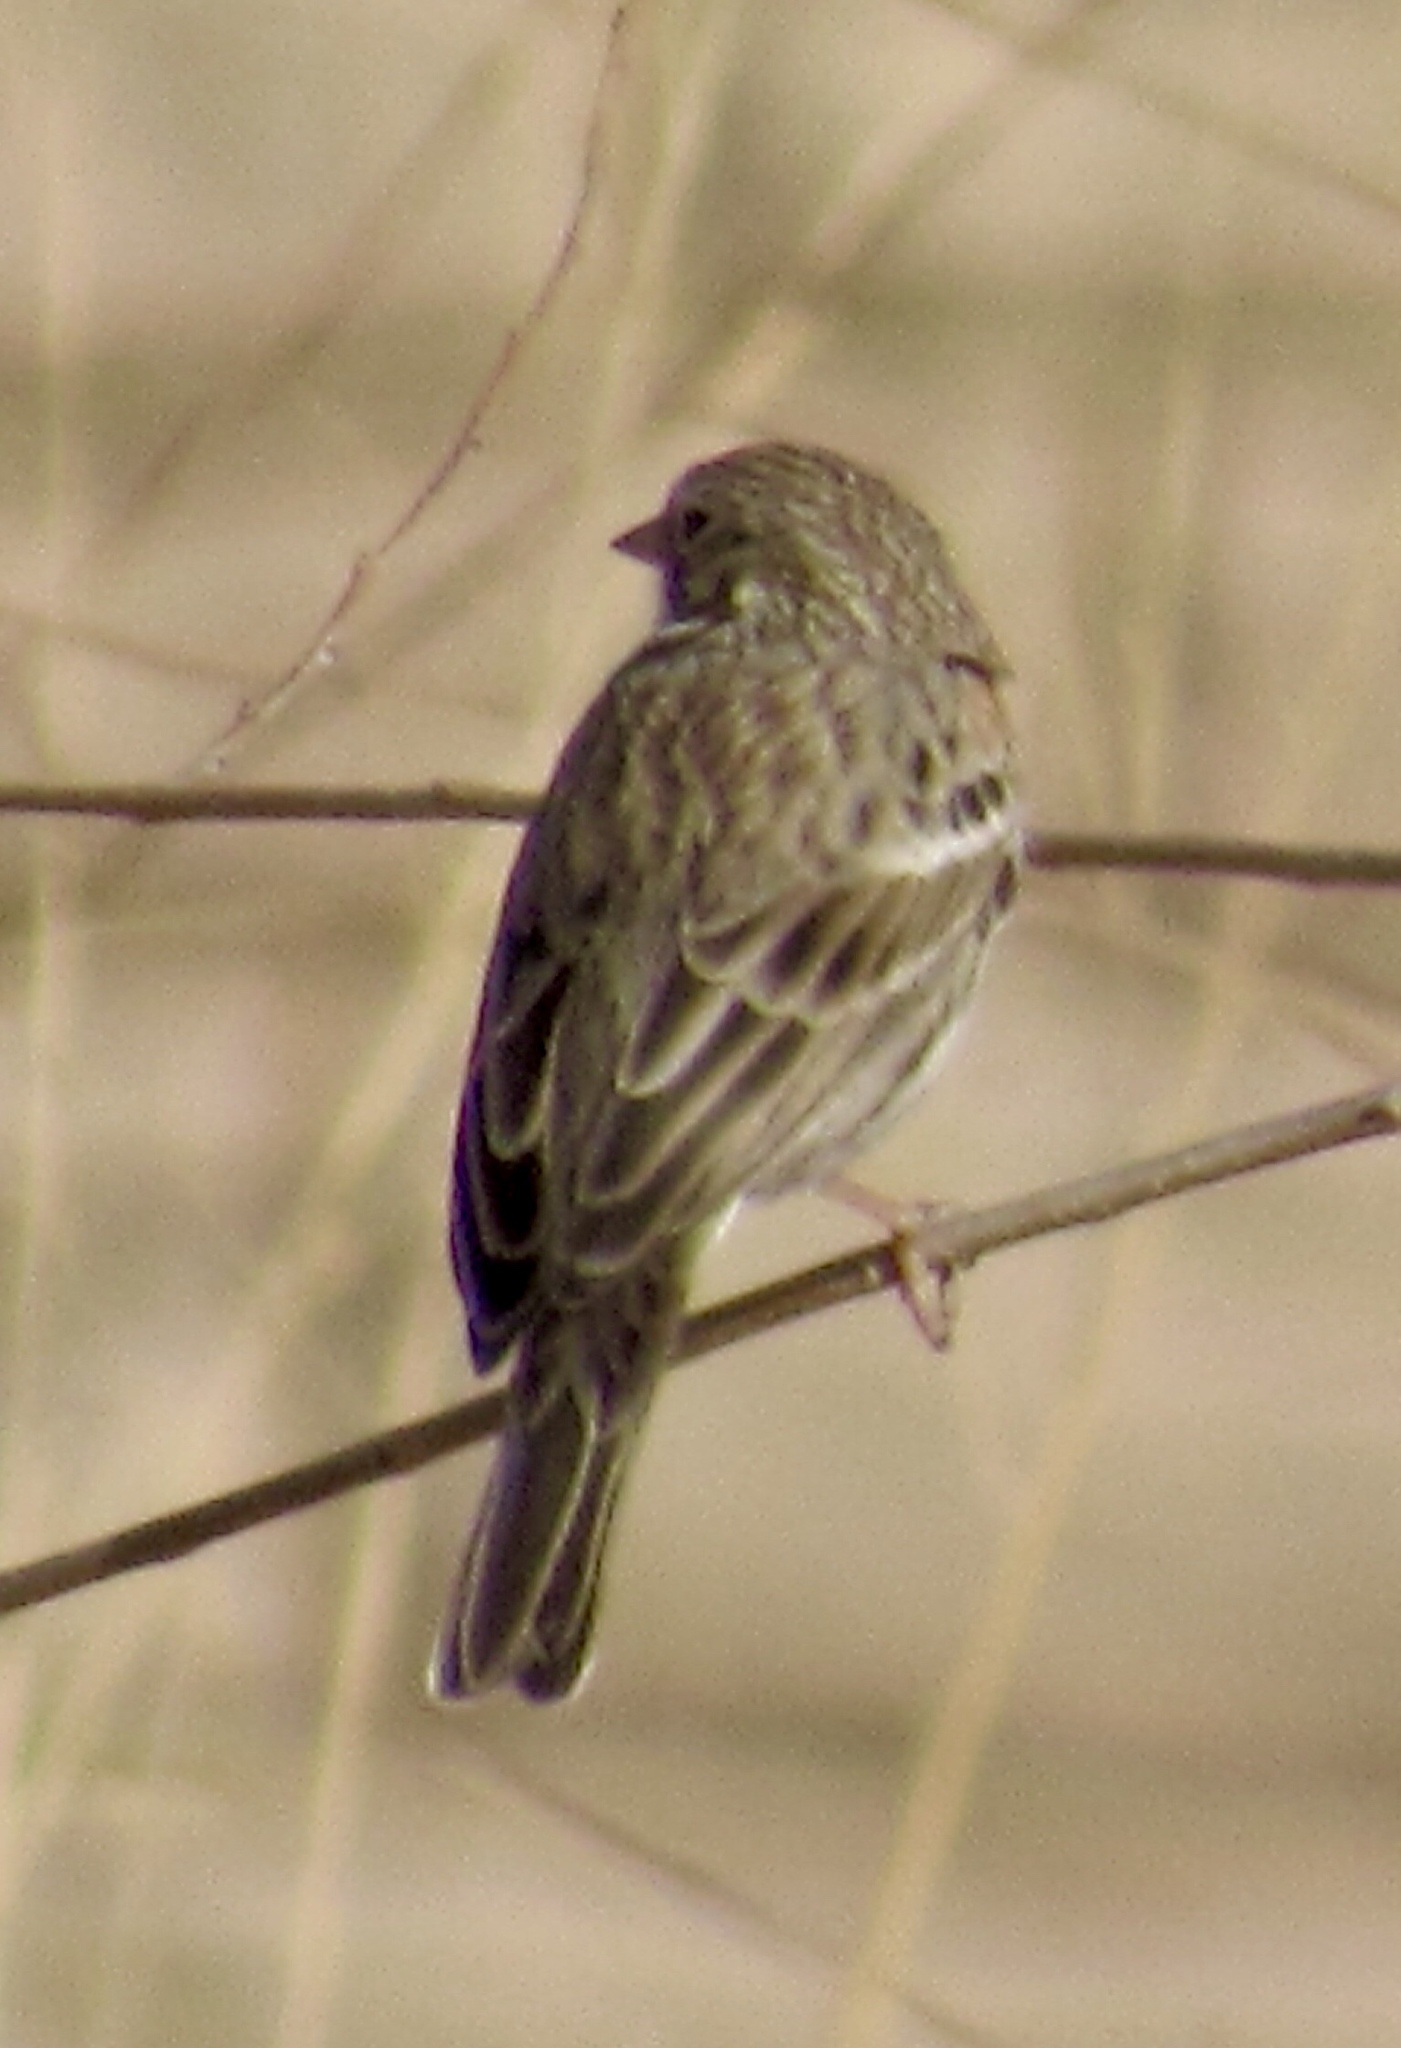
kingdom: Animalia
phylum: Chordata
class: Aves
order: Passeriformes
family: Passerellidae
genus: Pooecetes
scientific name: Pooecetes gramineus
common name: Vesper sparrow
